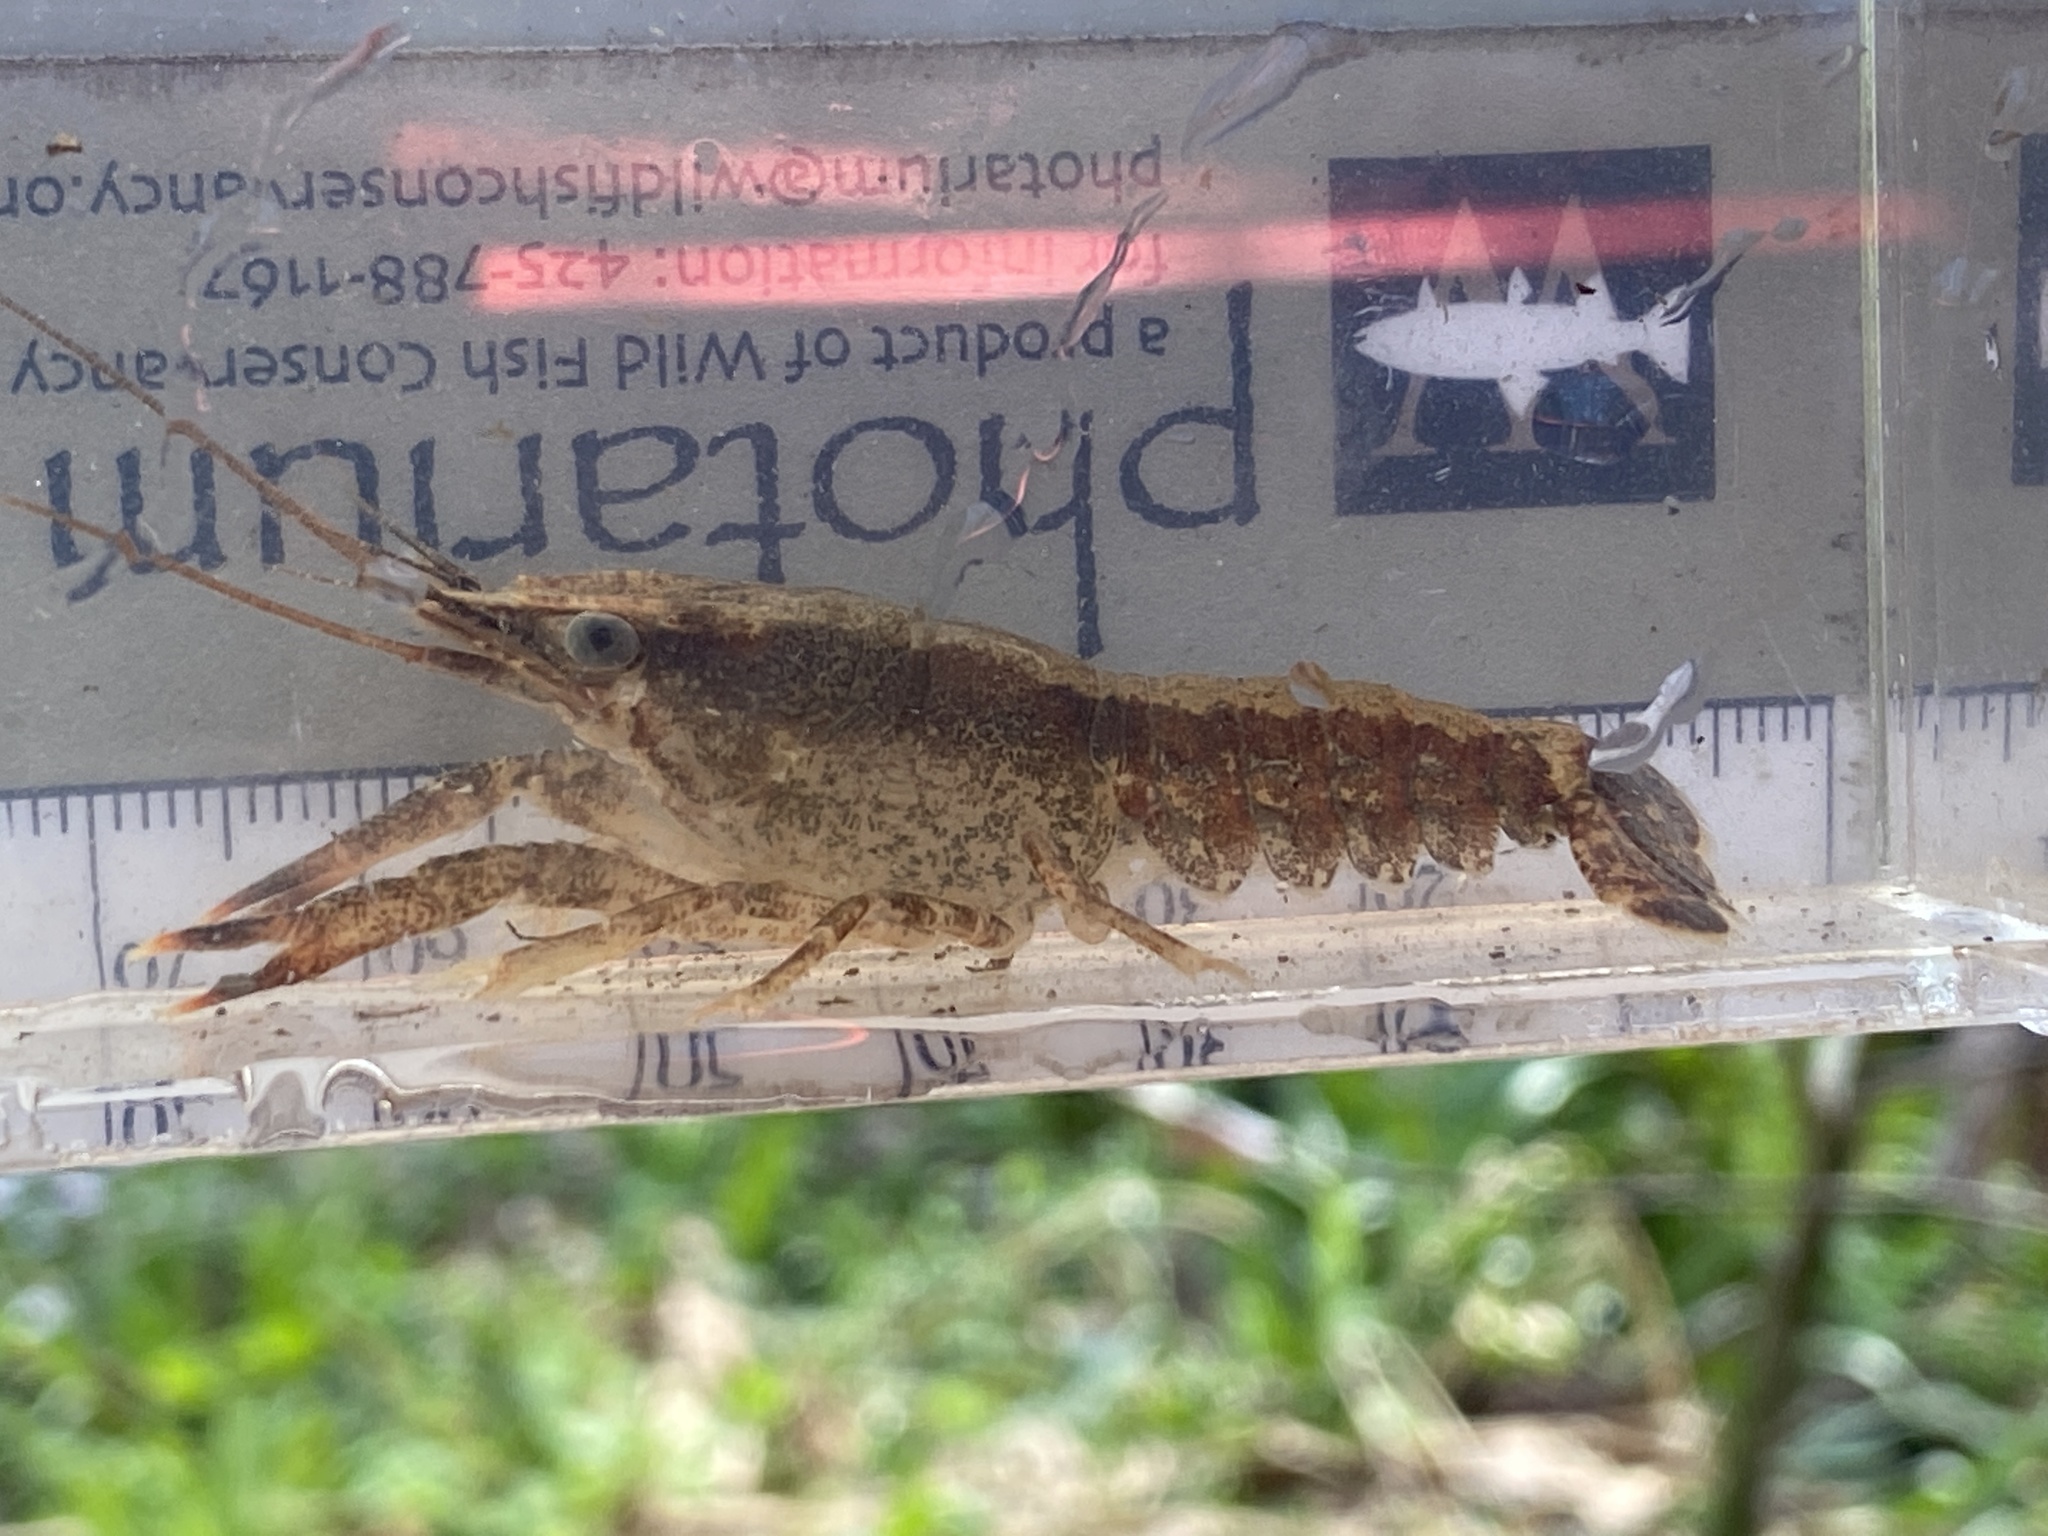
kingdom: Animalia
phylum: Arthropoda
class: Malacostraca
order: Decapoda
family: Cambaridae
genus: Procambarus
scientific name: Procambarus ouachitae
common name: Ouachita river crayfish
